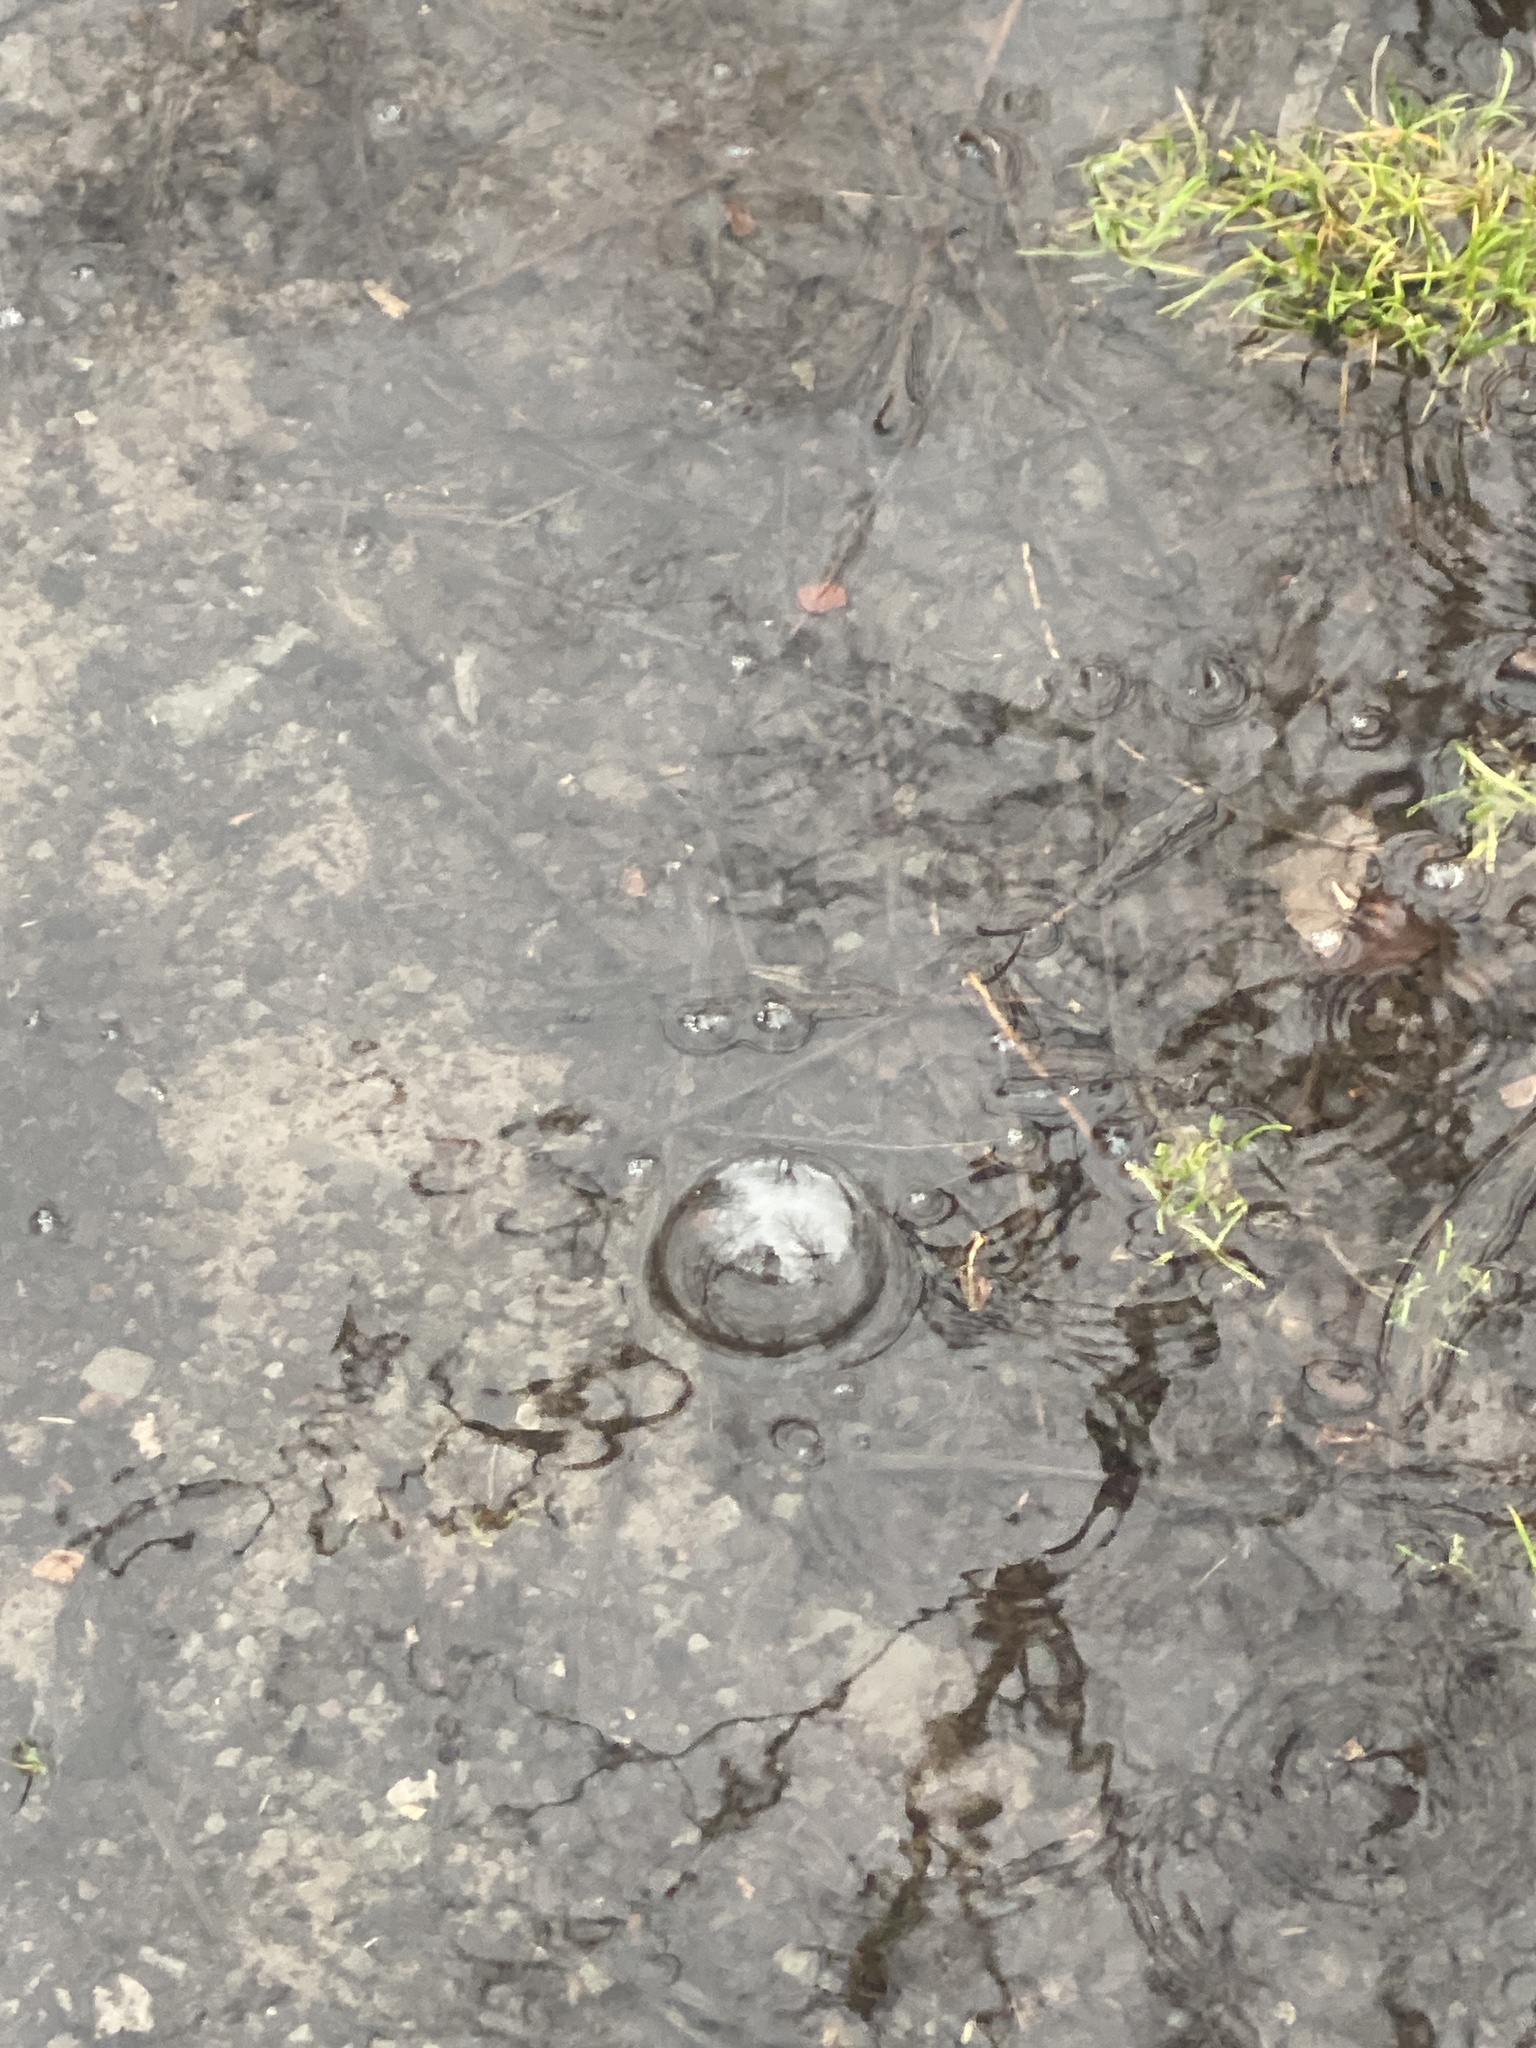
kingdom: Plantae
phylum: Tracheophyta
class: Magnoliopsida
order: Fagales
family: Juglandaceae
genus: Juglans
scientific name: Juglans nigra
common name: Black walnut
